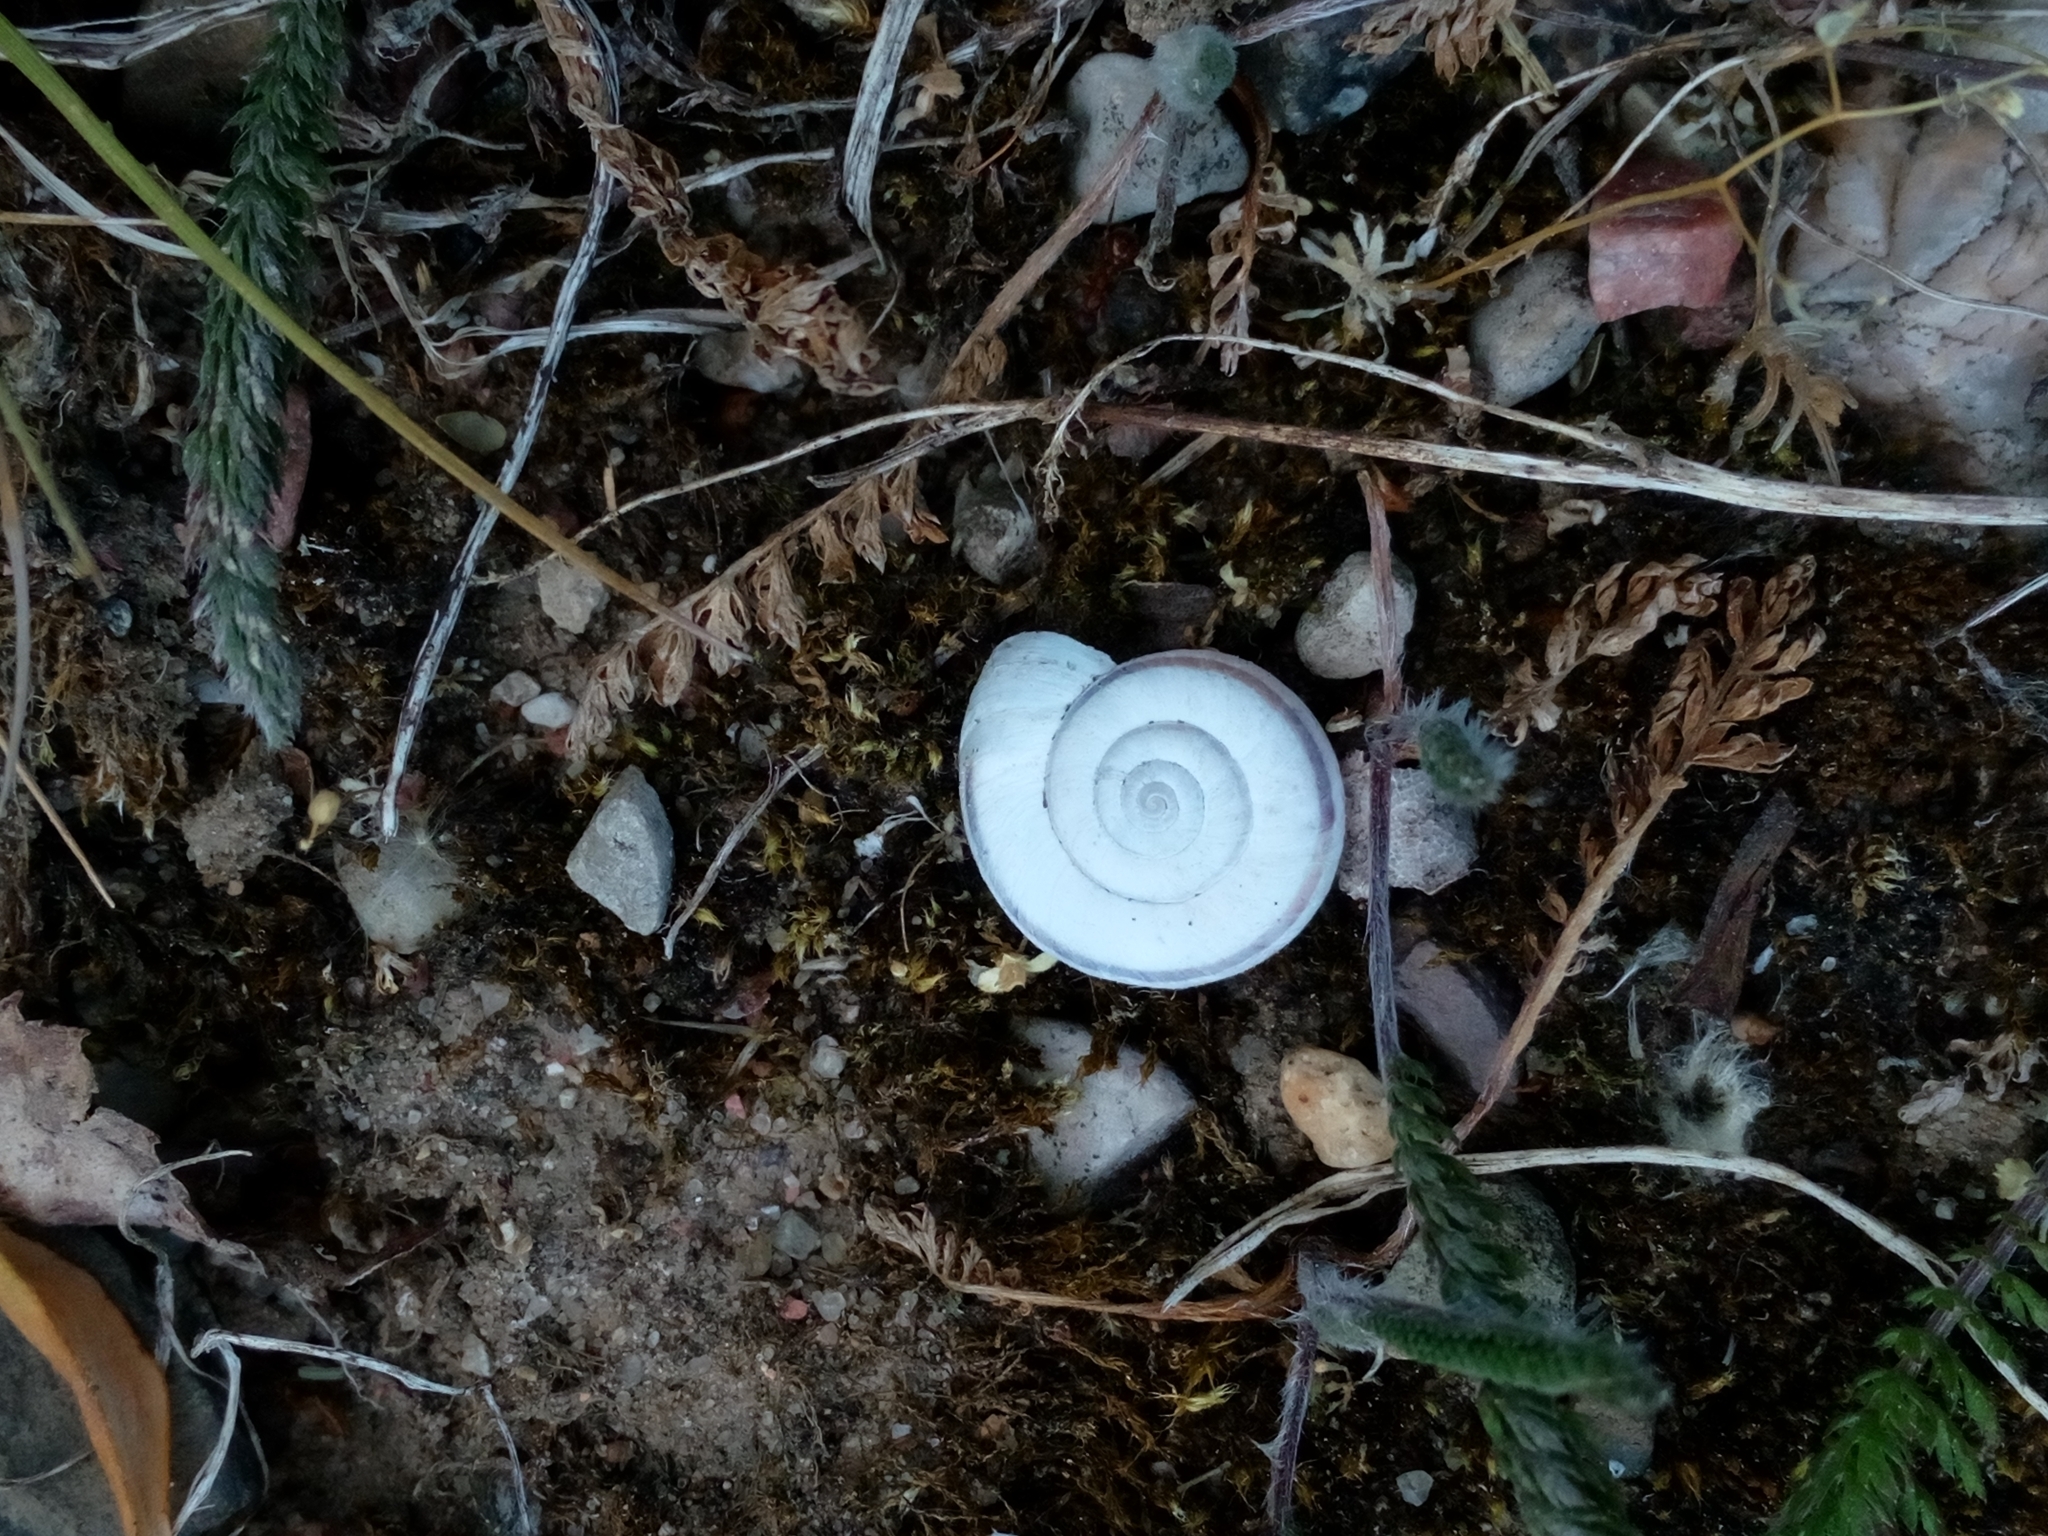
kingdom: Animalia
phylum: Mollusca
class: Gastropoda
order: Stylommatophora
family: Geomitridae
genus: Xerolenta
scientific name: Xerolenta obvia
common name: White heath snail
